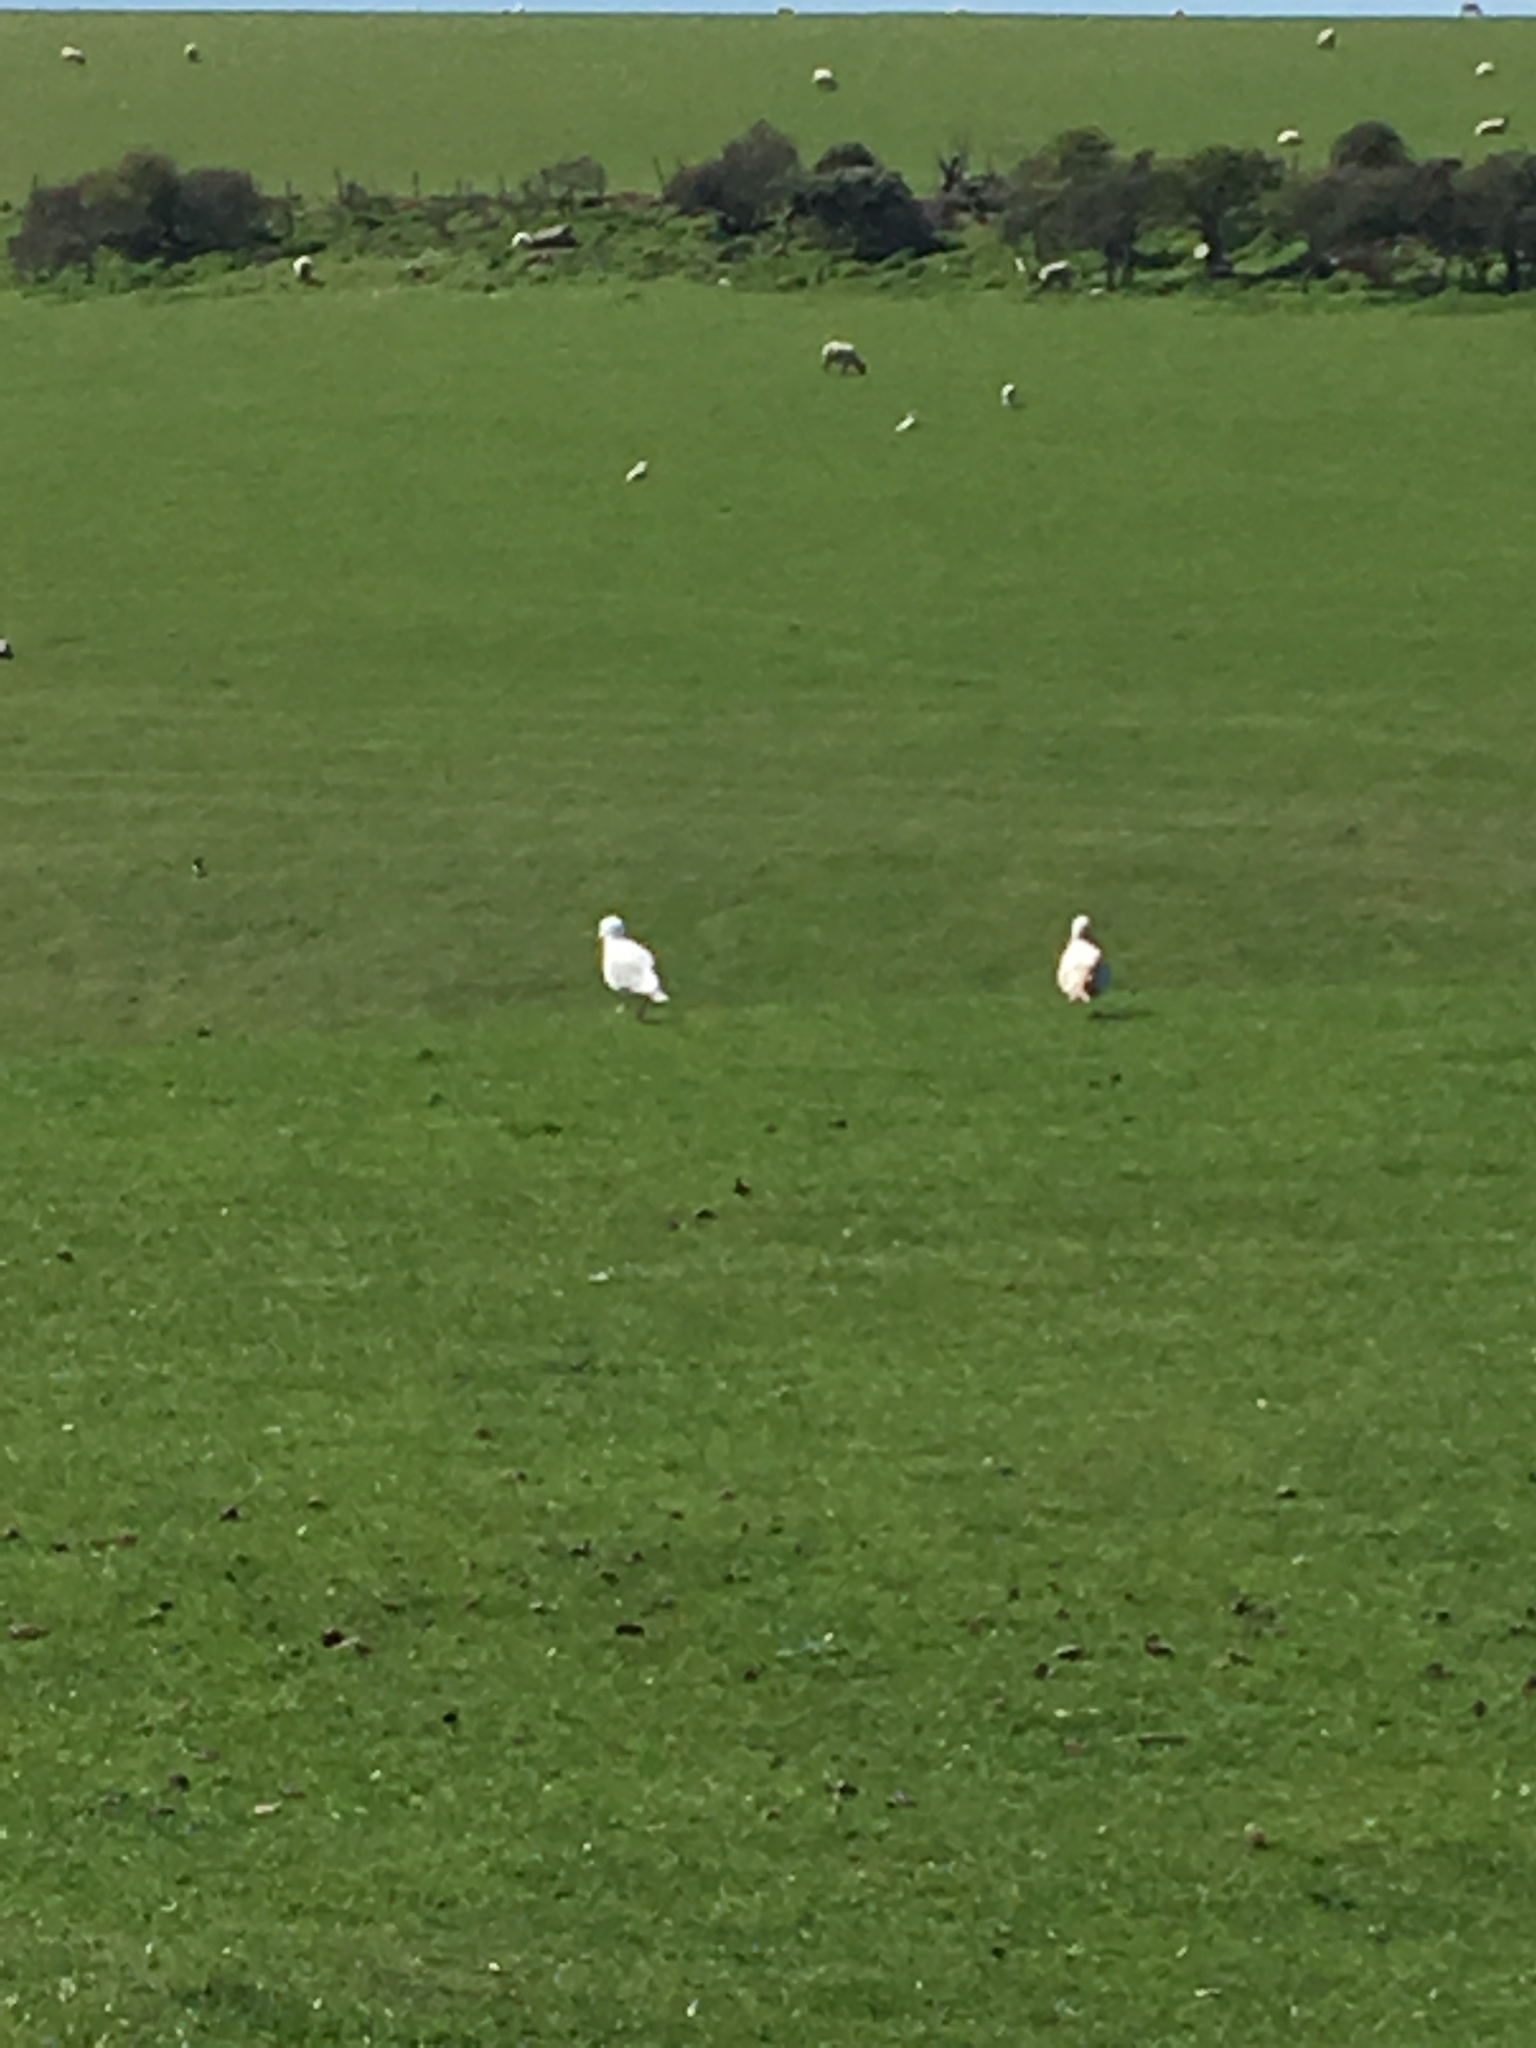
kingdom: Animalia
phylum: Chordata
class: Aves
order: Charadriiformes
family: Laridae
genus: Larus
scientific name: Larus argentatus
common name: Herring gull
